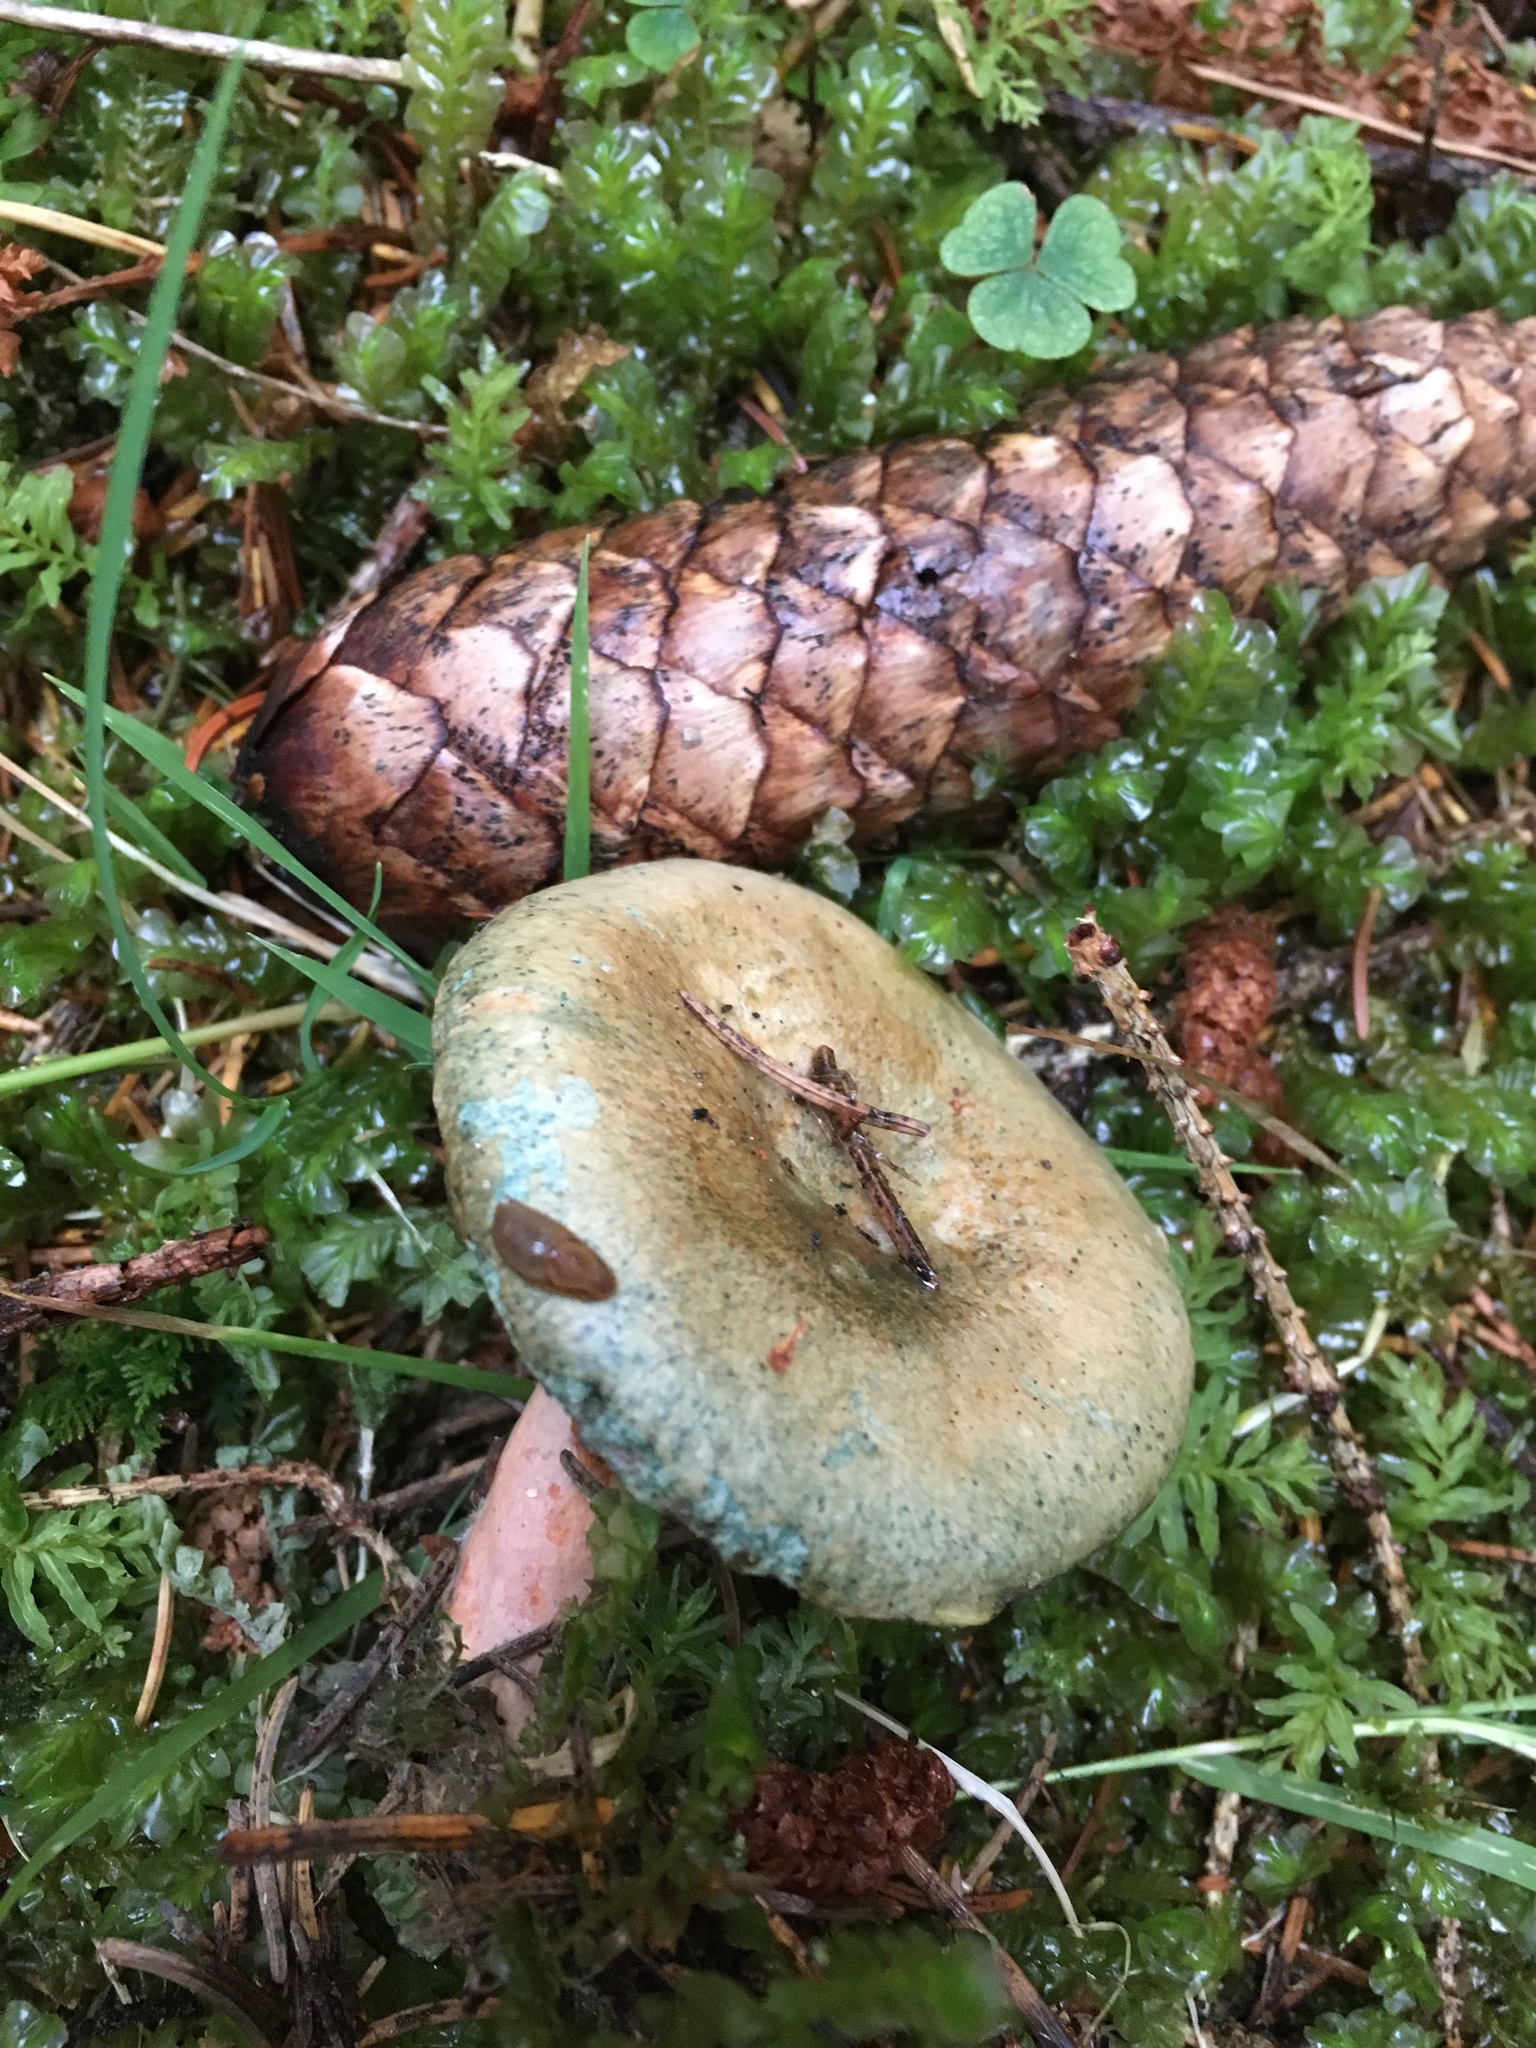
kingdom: Fungi
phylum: Basidiomycota
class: Agaricomycetes
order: Russulales
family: Russulaceae
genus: Lactarius
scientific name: Lactarius deterrimus
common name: False saffron milkcap
